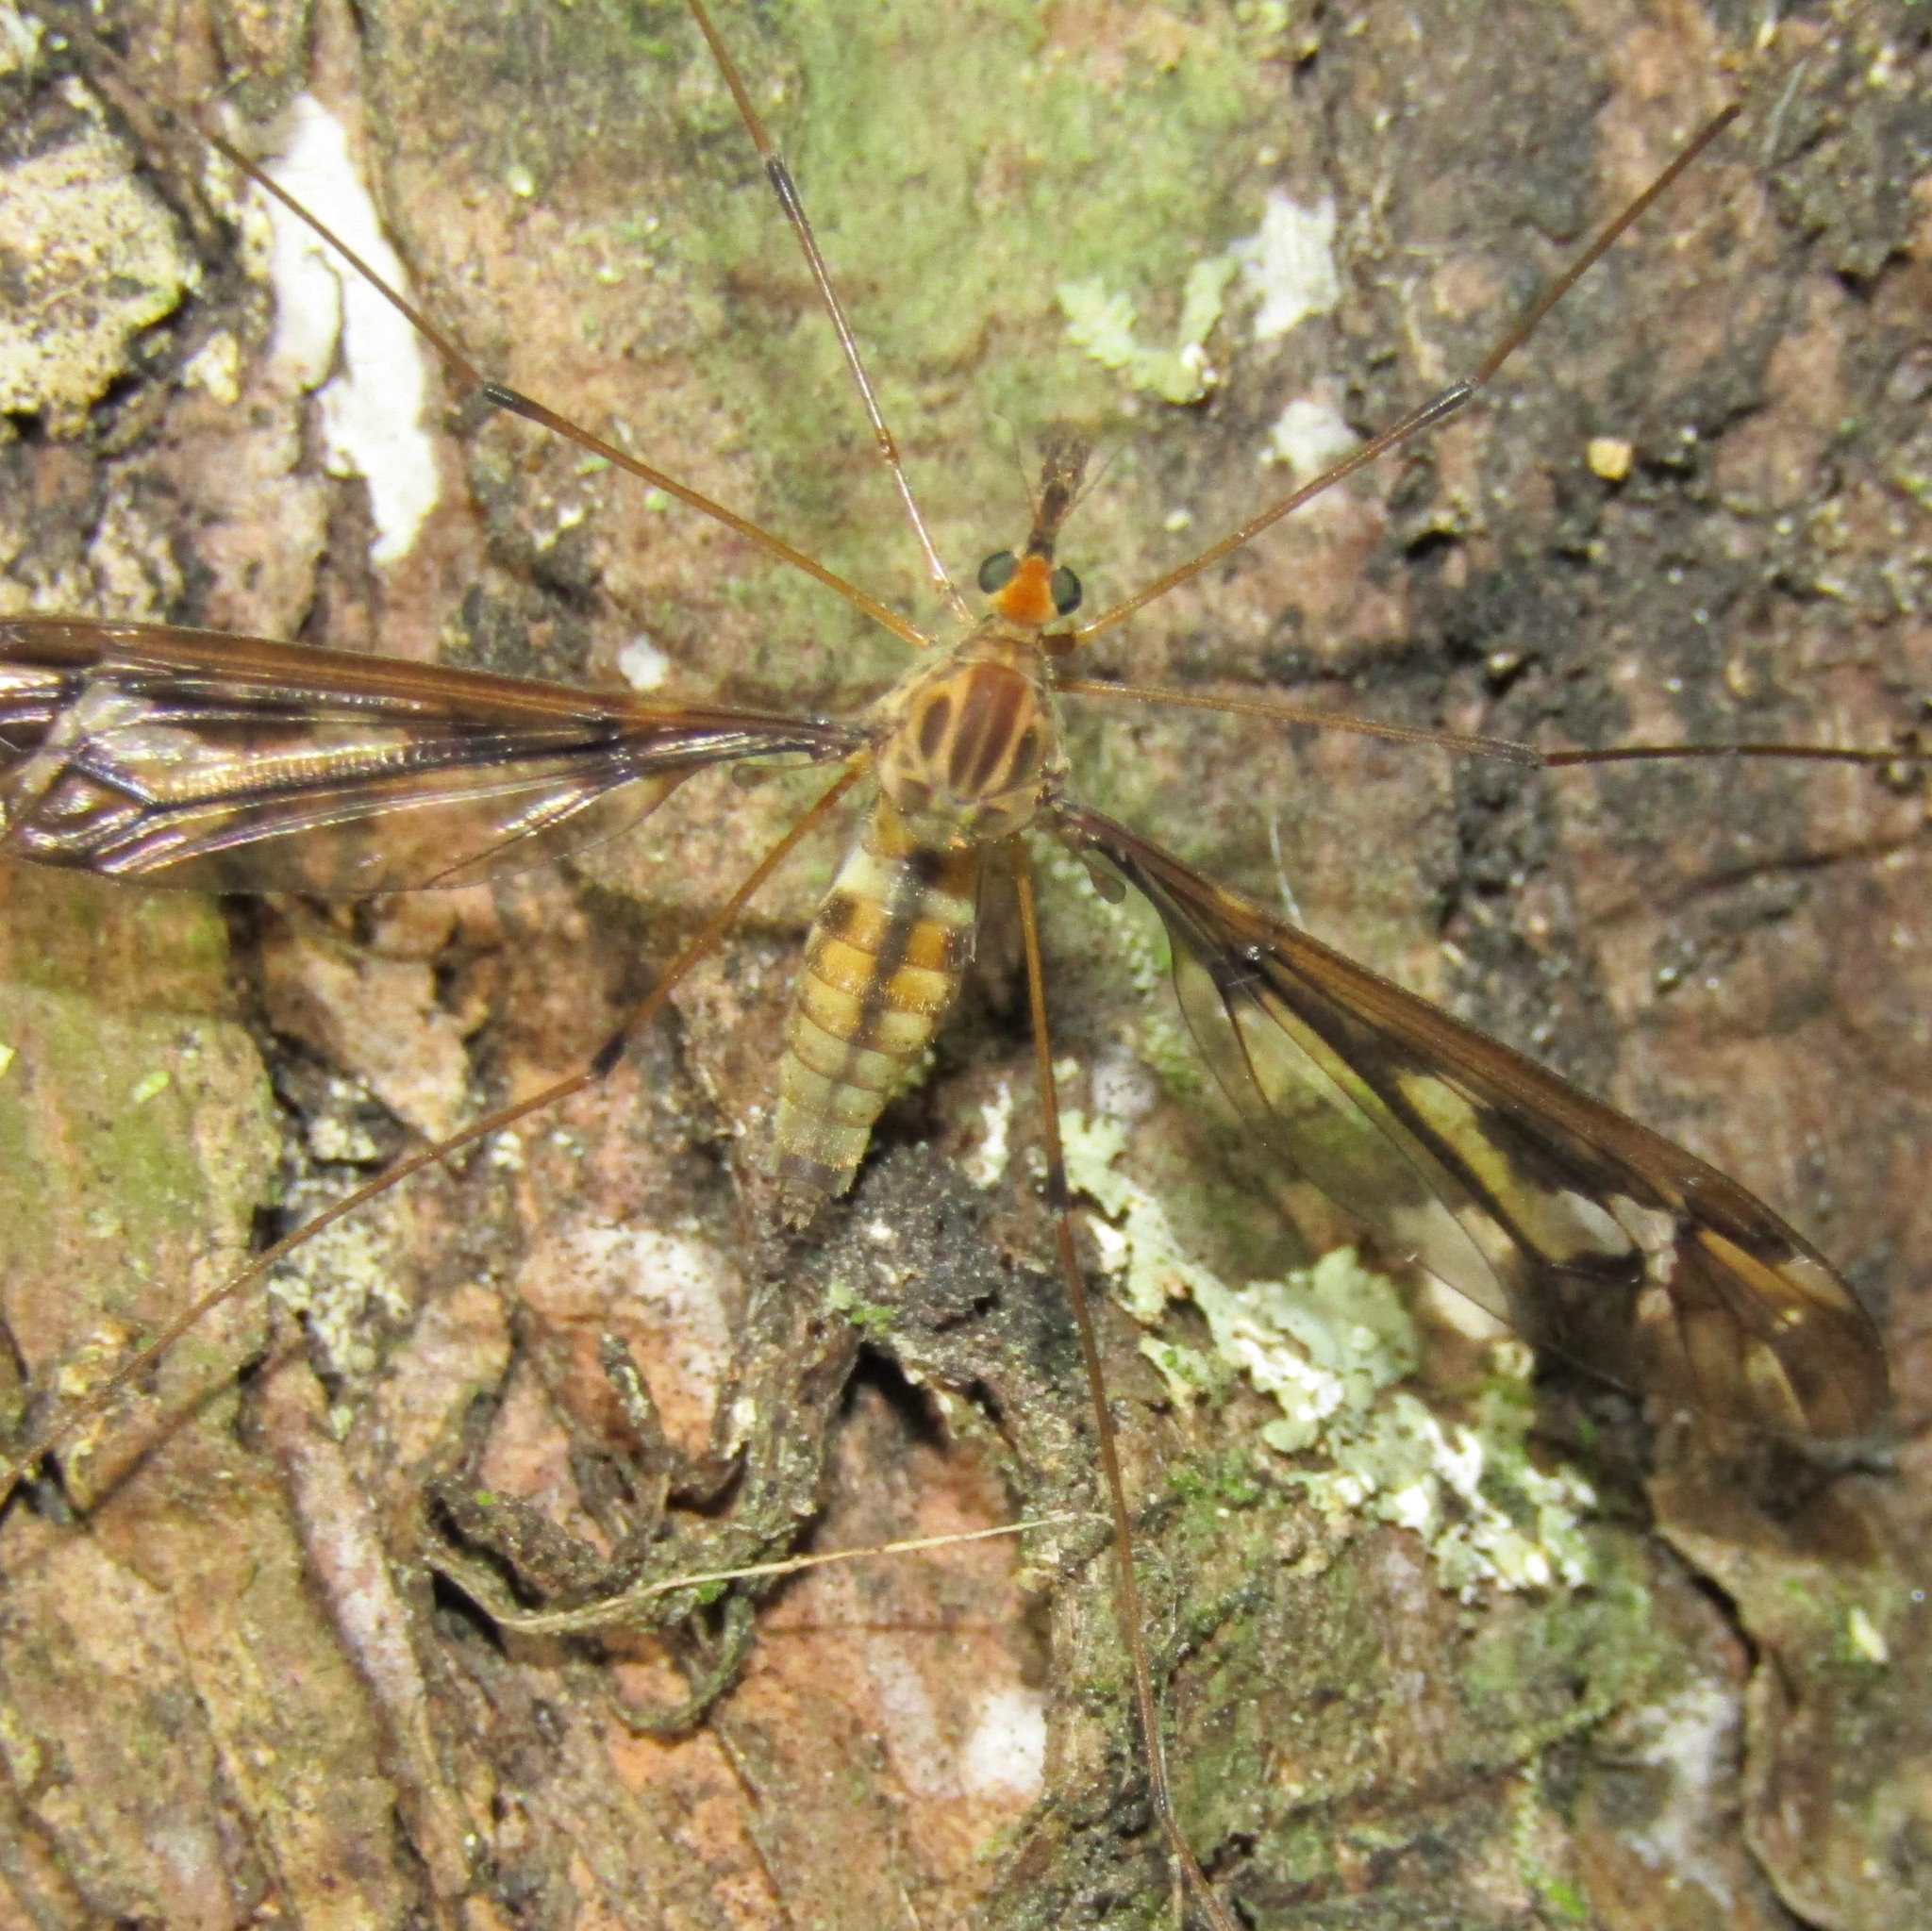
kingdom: Animalia
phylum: Arthropoda
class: Insecta
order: Diptera
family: Tipulidae
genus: Leptotarsus
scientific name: Leptotarsus huttoni
